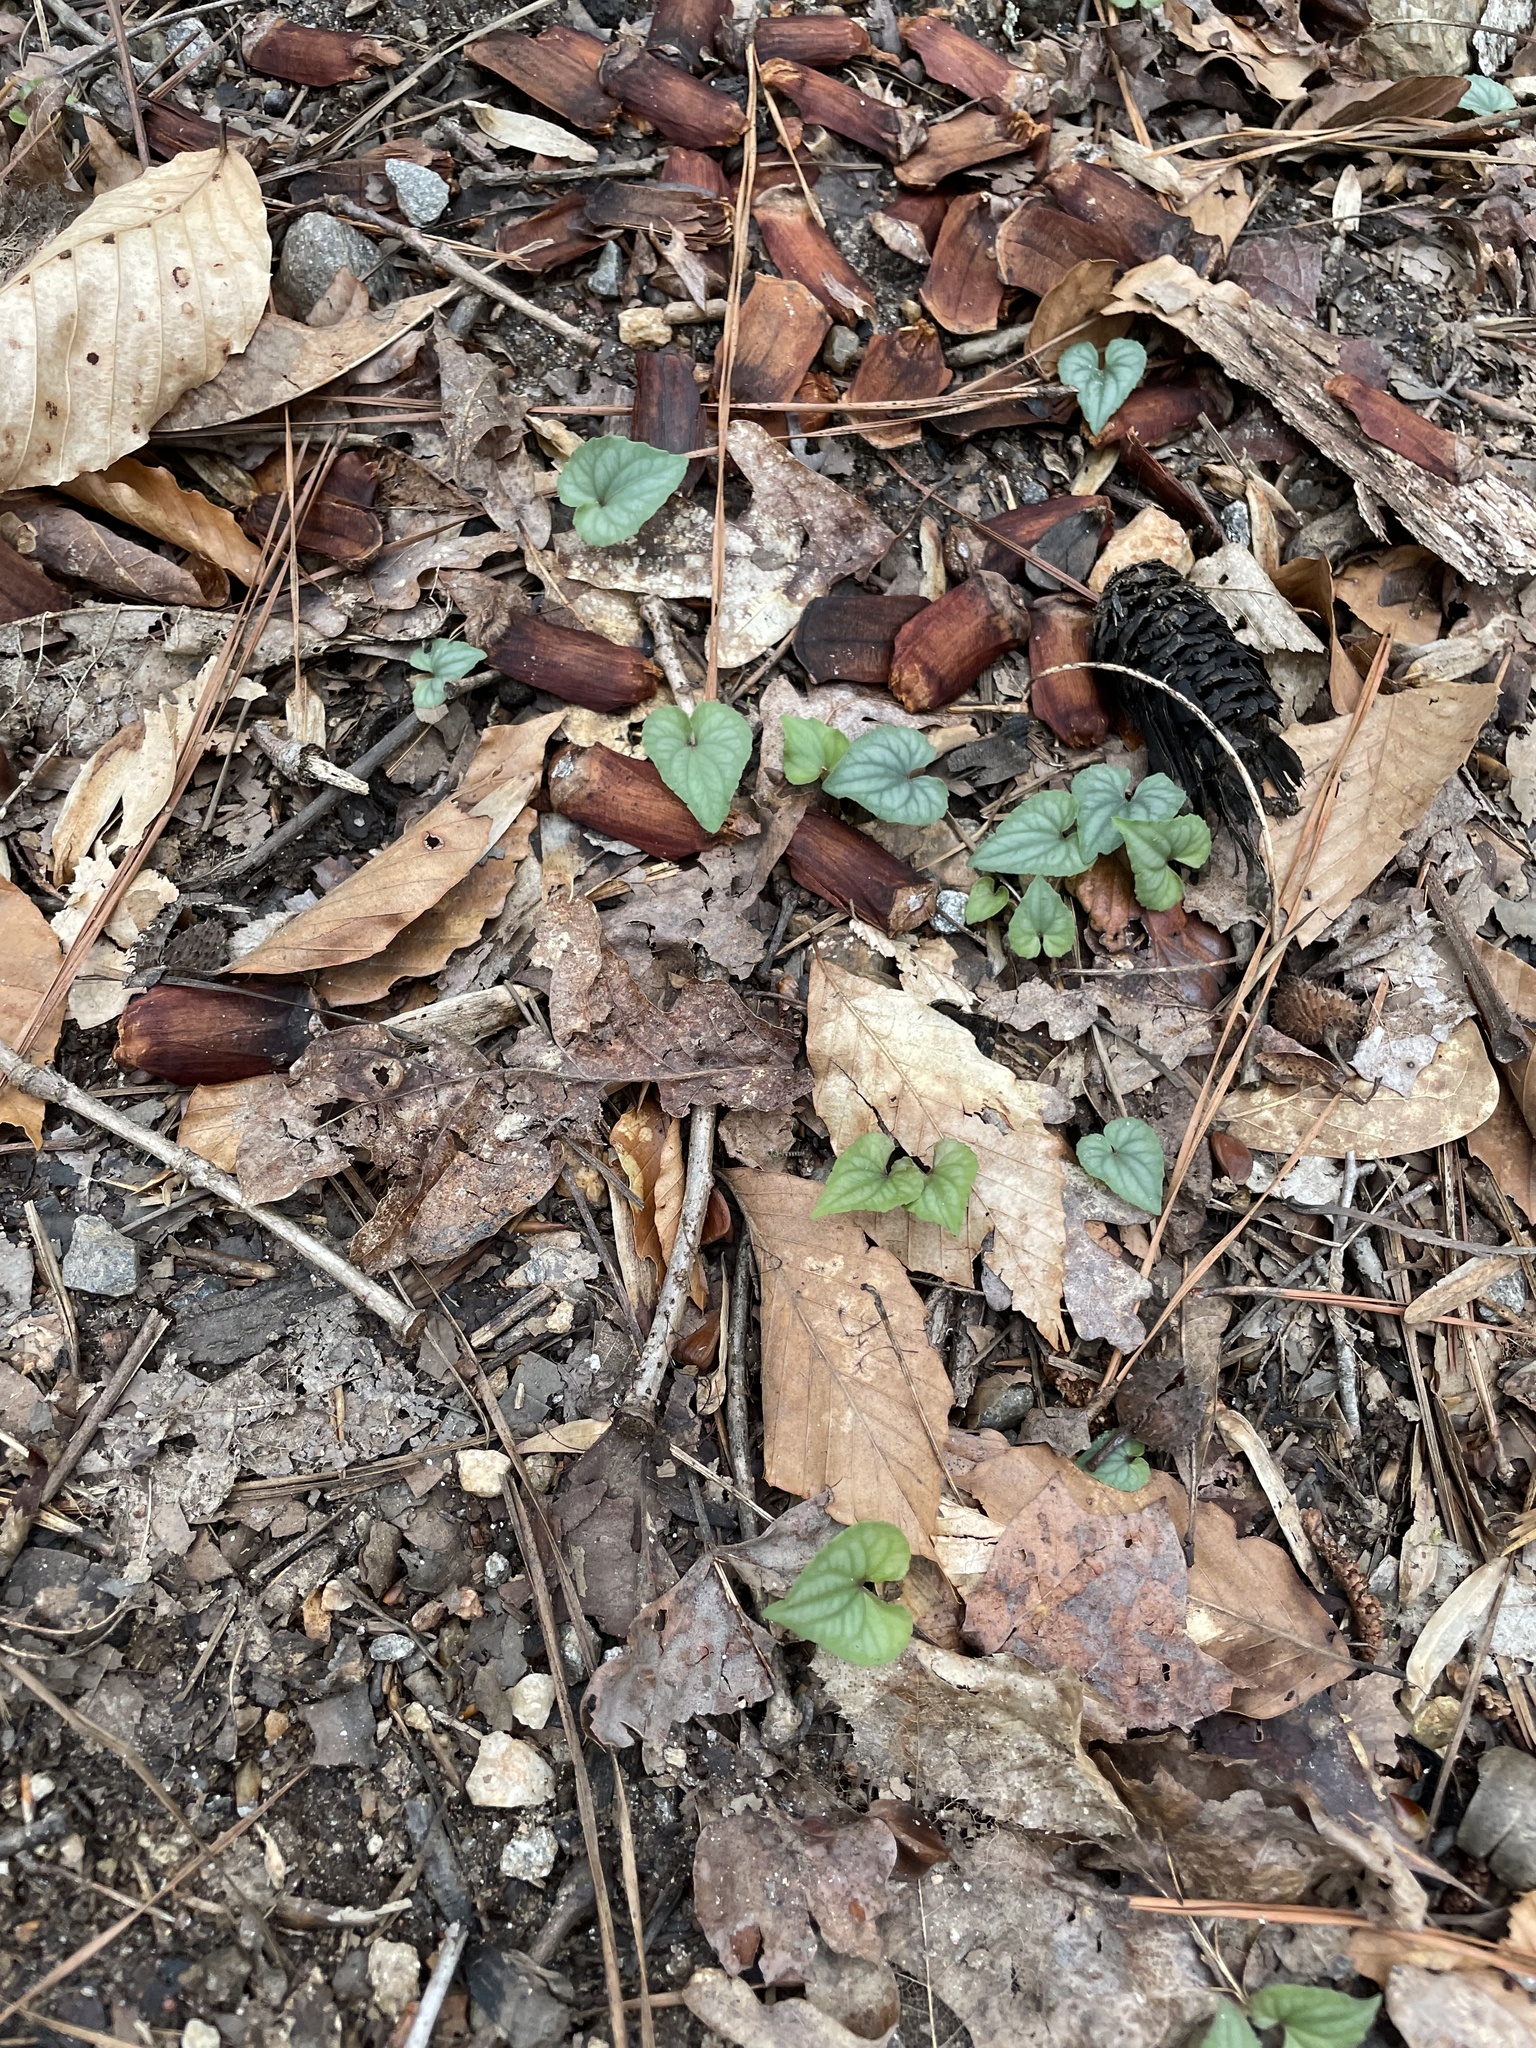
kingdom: Plantae
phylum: Tracheophyta
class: Magnoliopsida
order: Malpighiales
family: Violaceae
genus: Viola
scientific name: Viola hastata
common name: Spear-leaf violet
